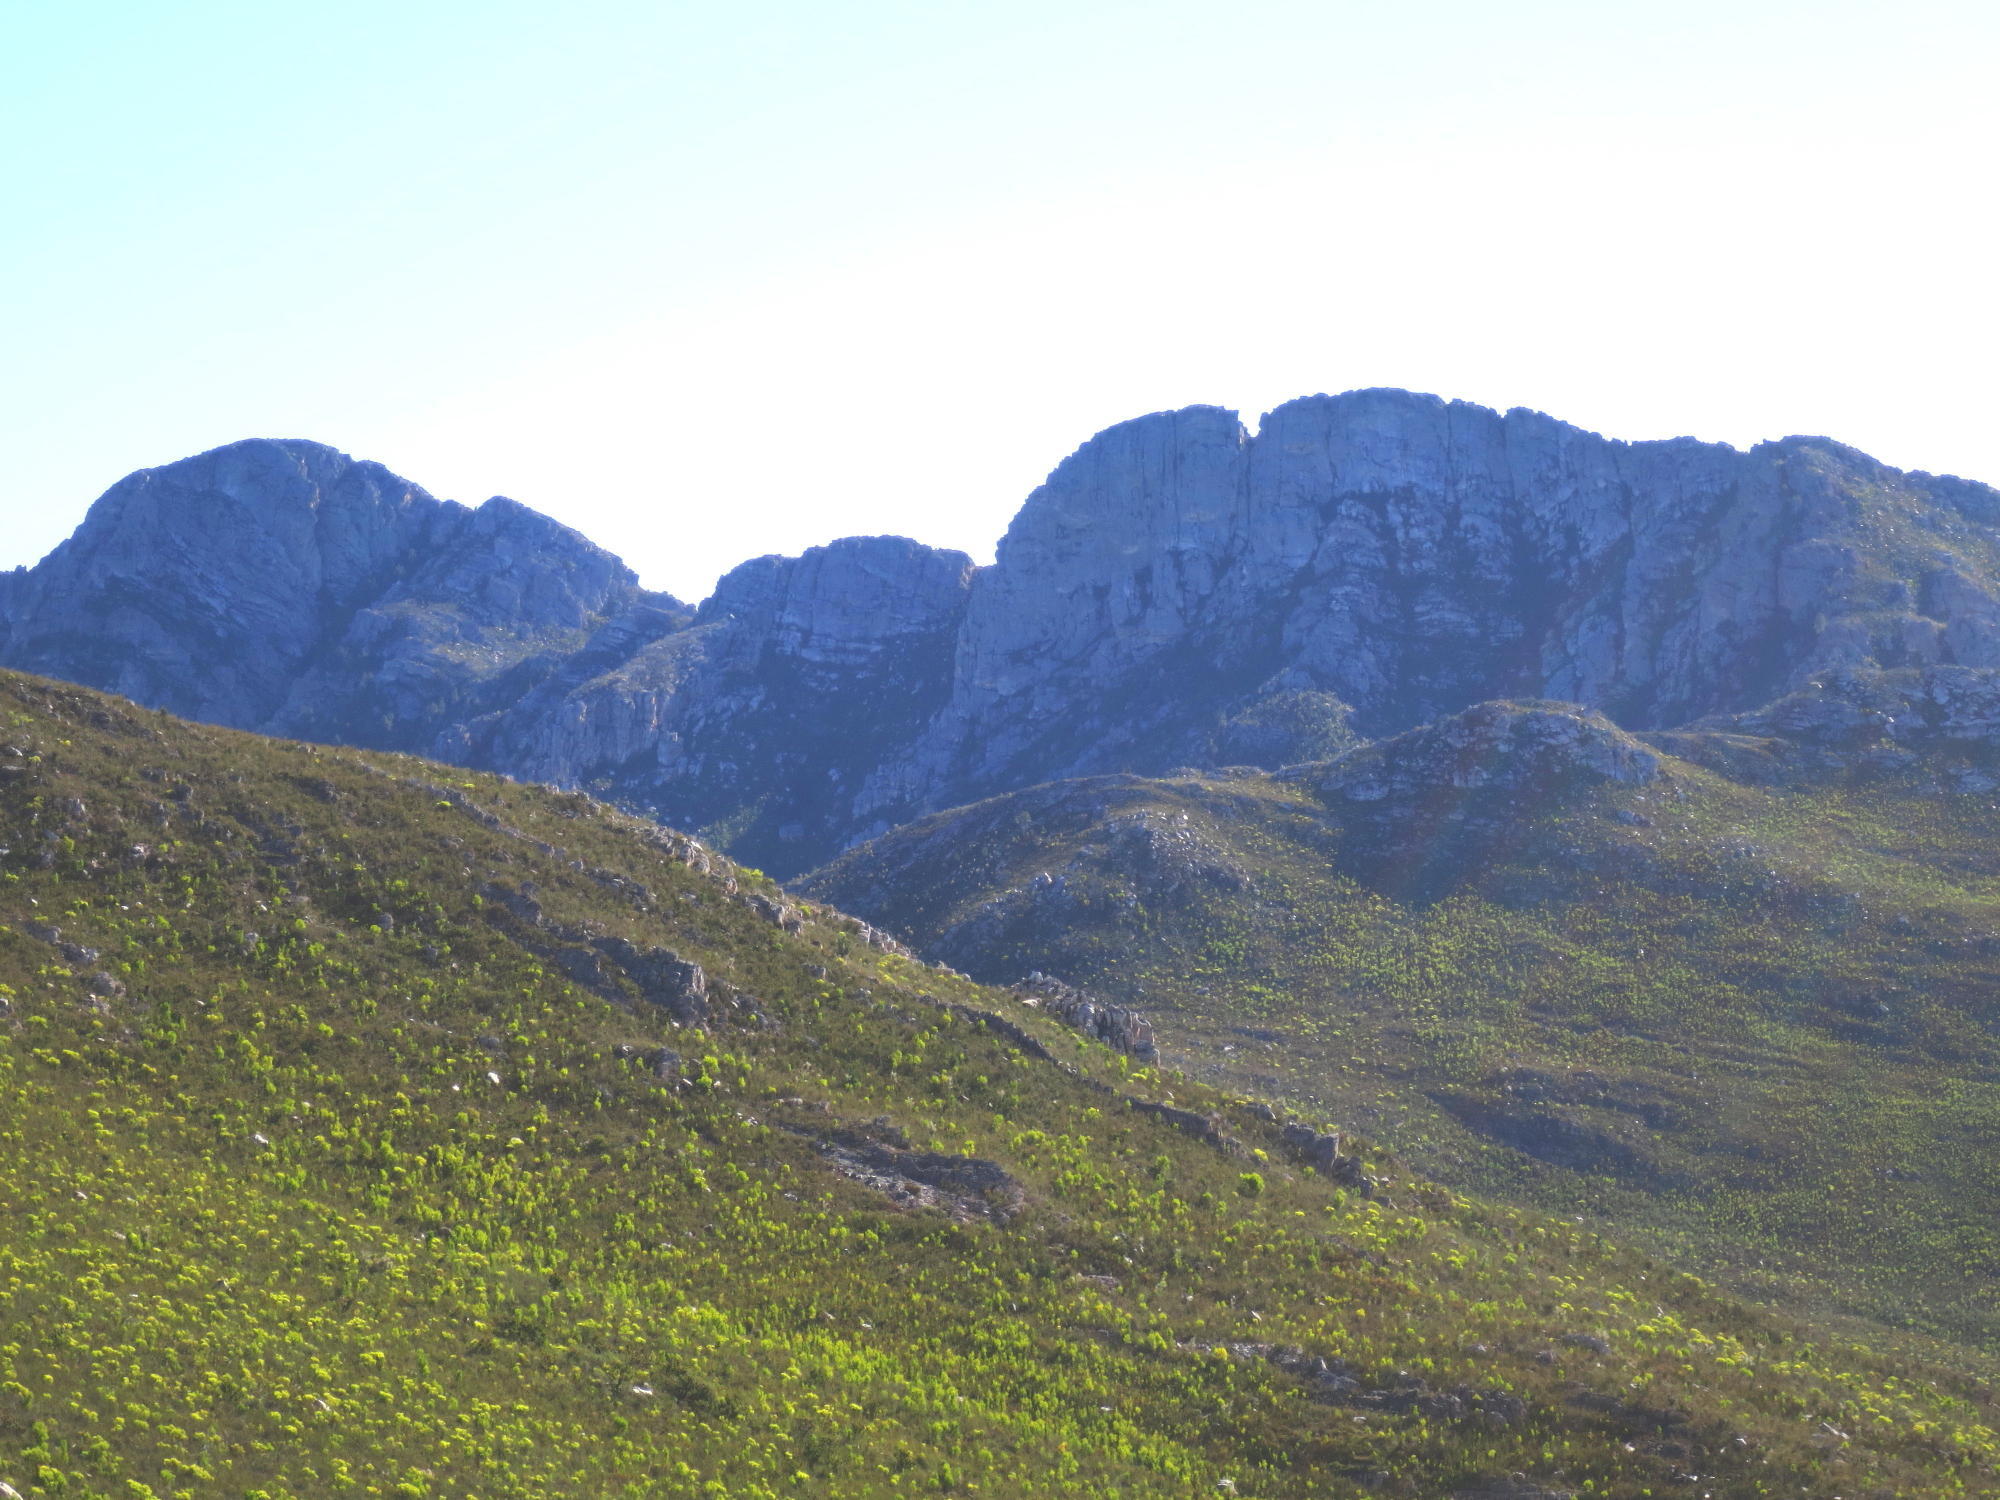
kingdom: Plantae
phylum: Tracheophyta
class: Magnoliopsida
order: Proteales
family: Proteaceae
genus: Leucadendron
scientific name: Leucadendron salignum
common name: Common sunshine conebush
